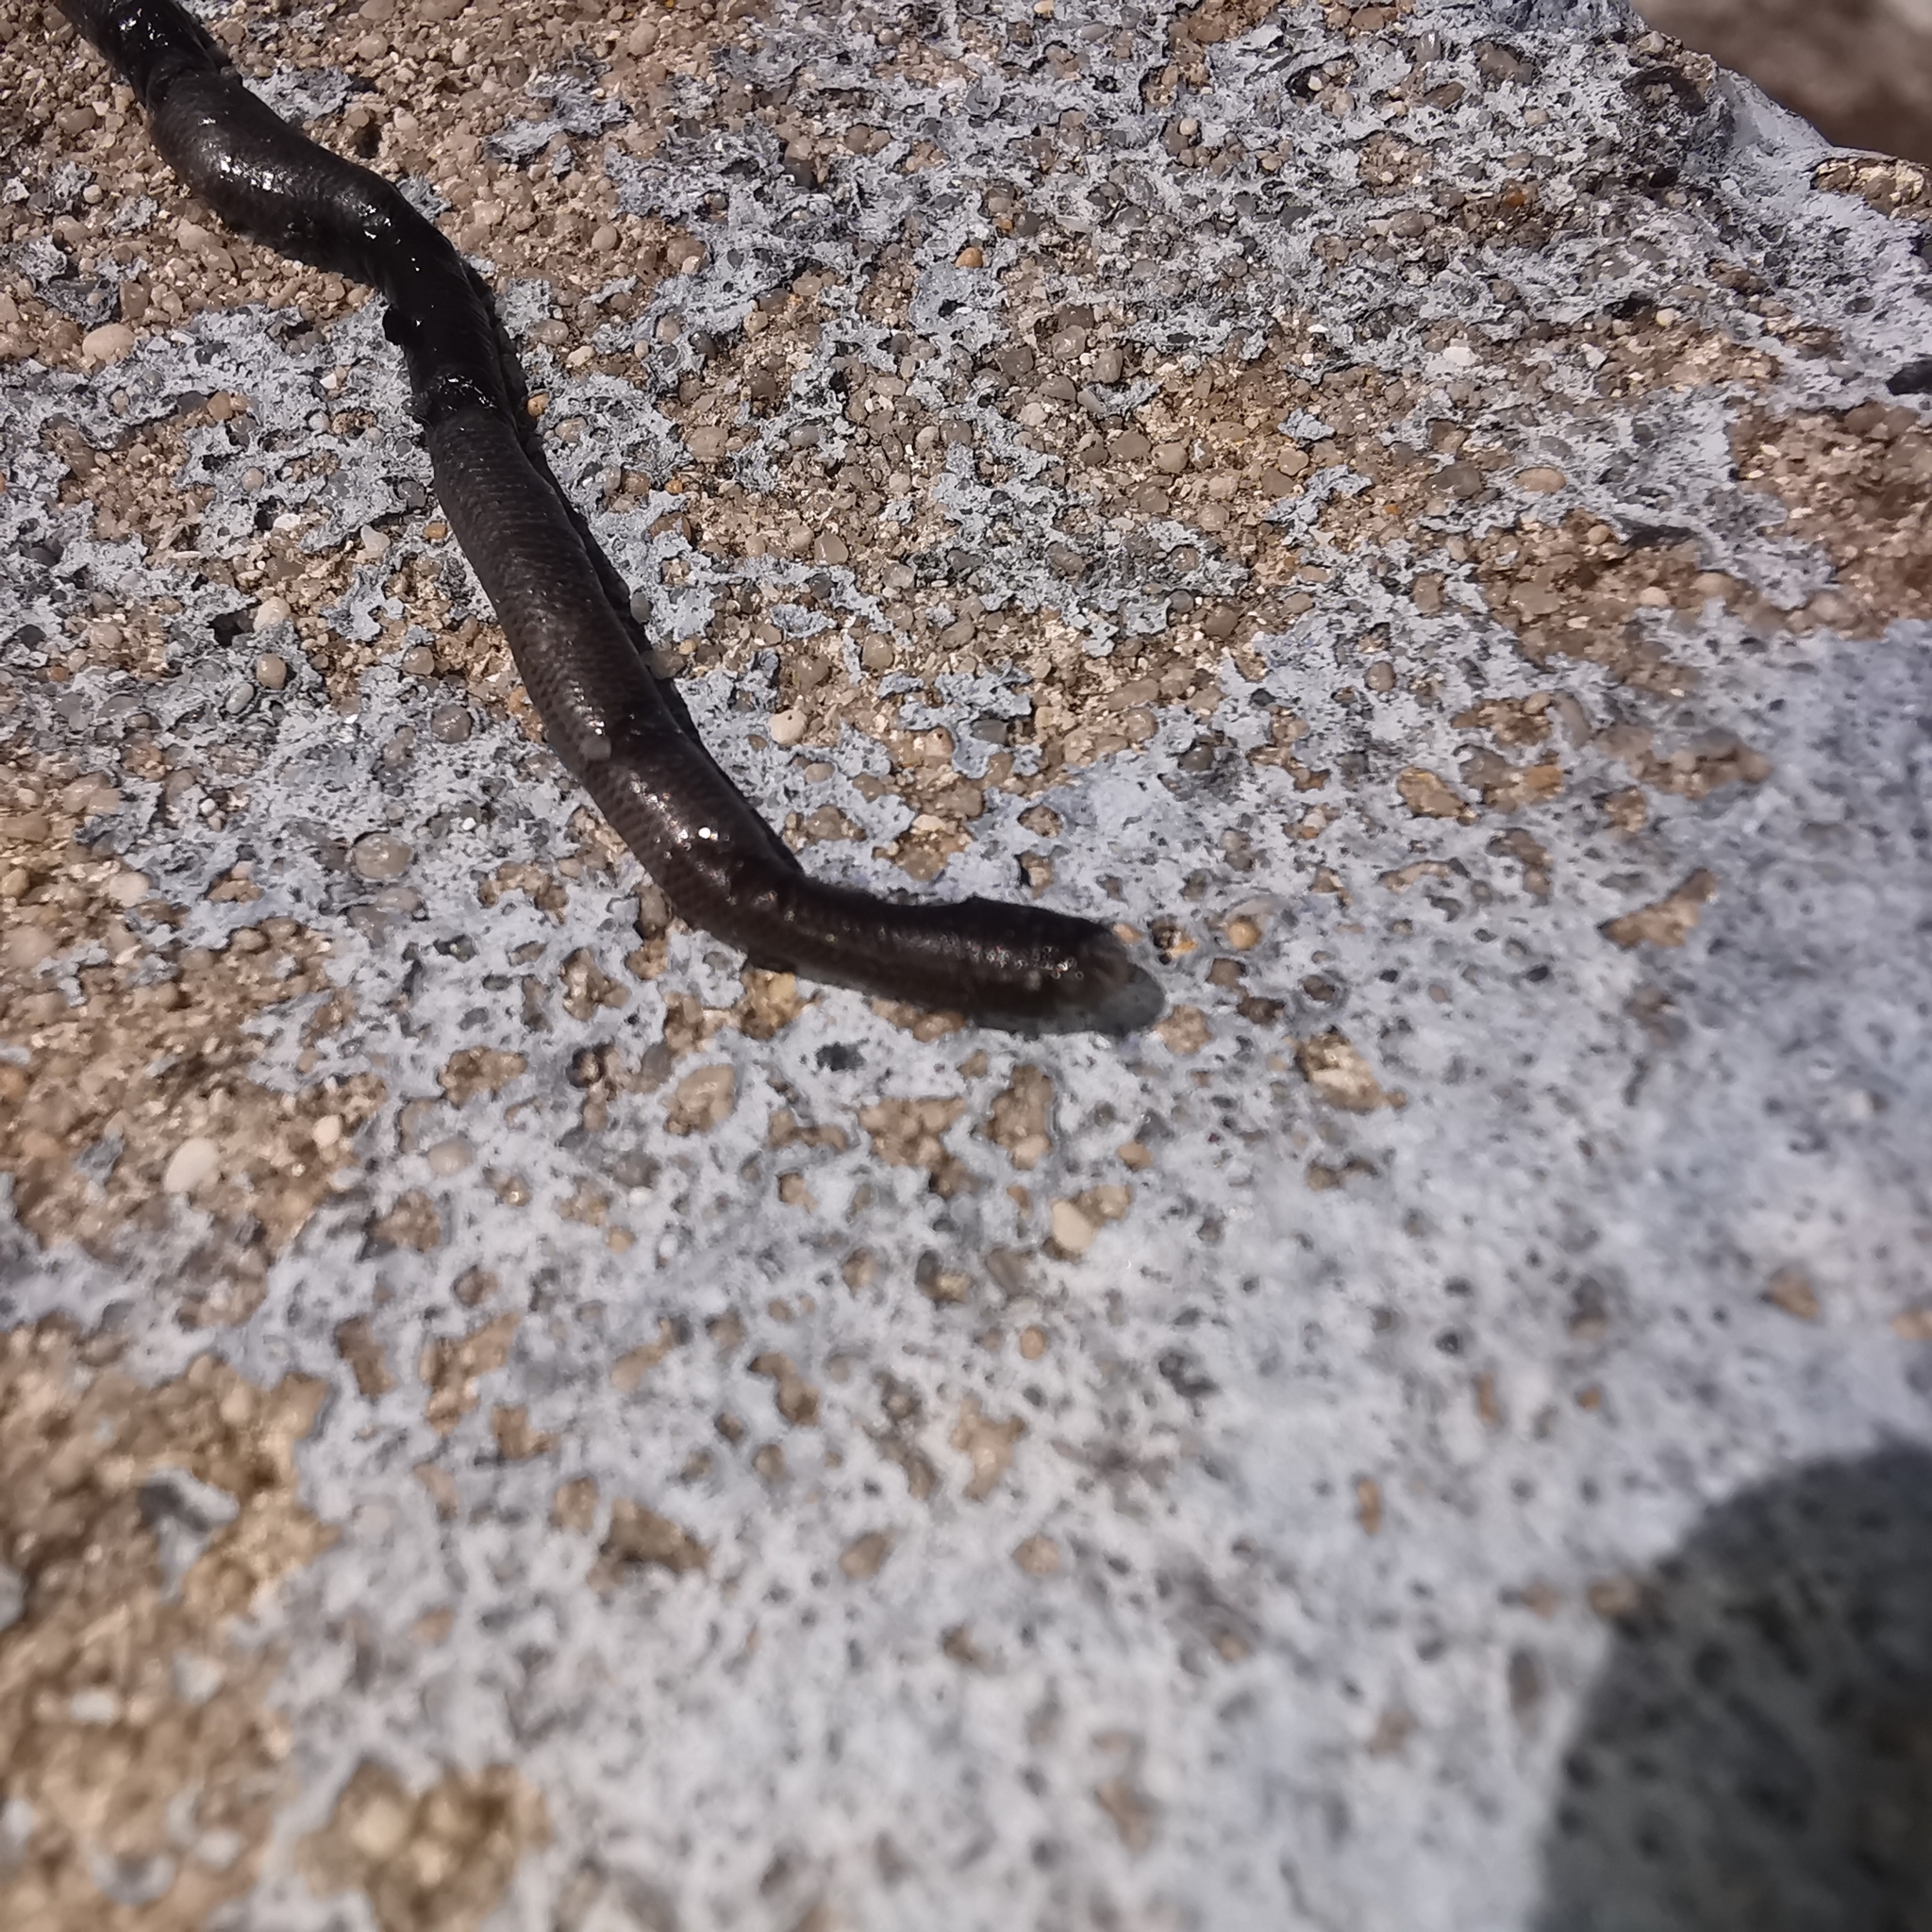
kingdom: Animalia
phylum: Chordata
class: Squamata
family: Typhlopidae
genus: Indotyphlops
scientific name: Indotyphlops braminus
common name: Brahminy blindsnake
